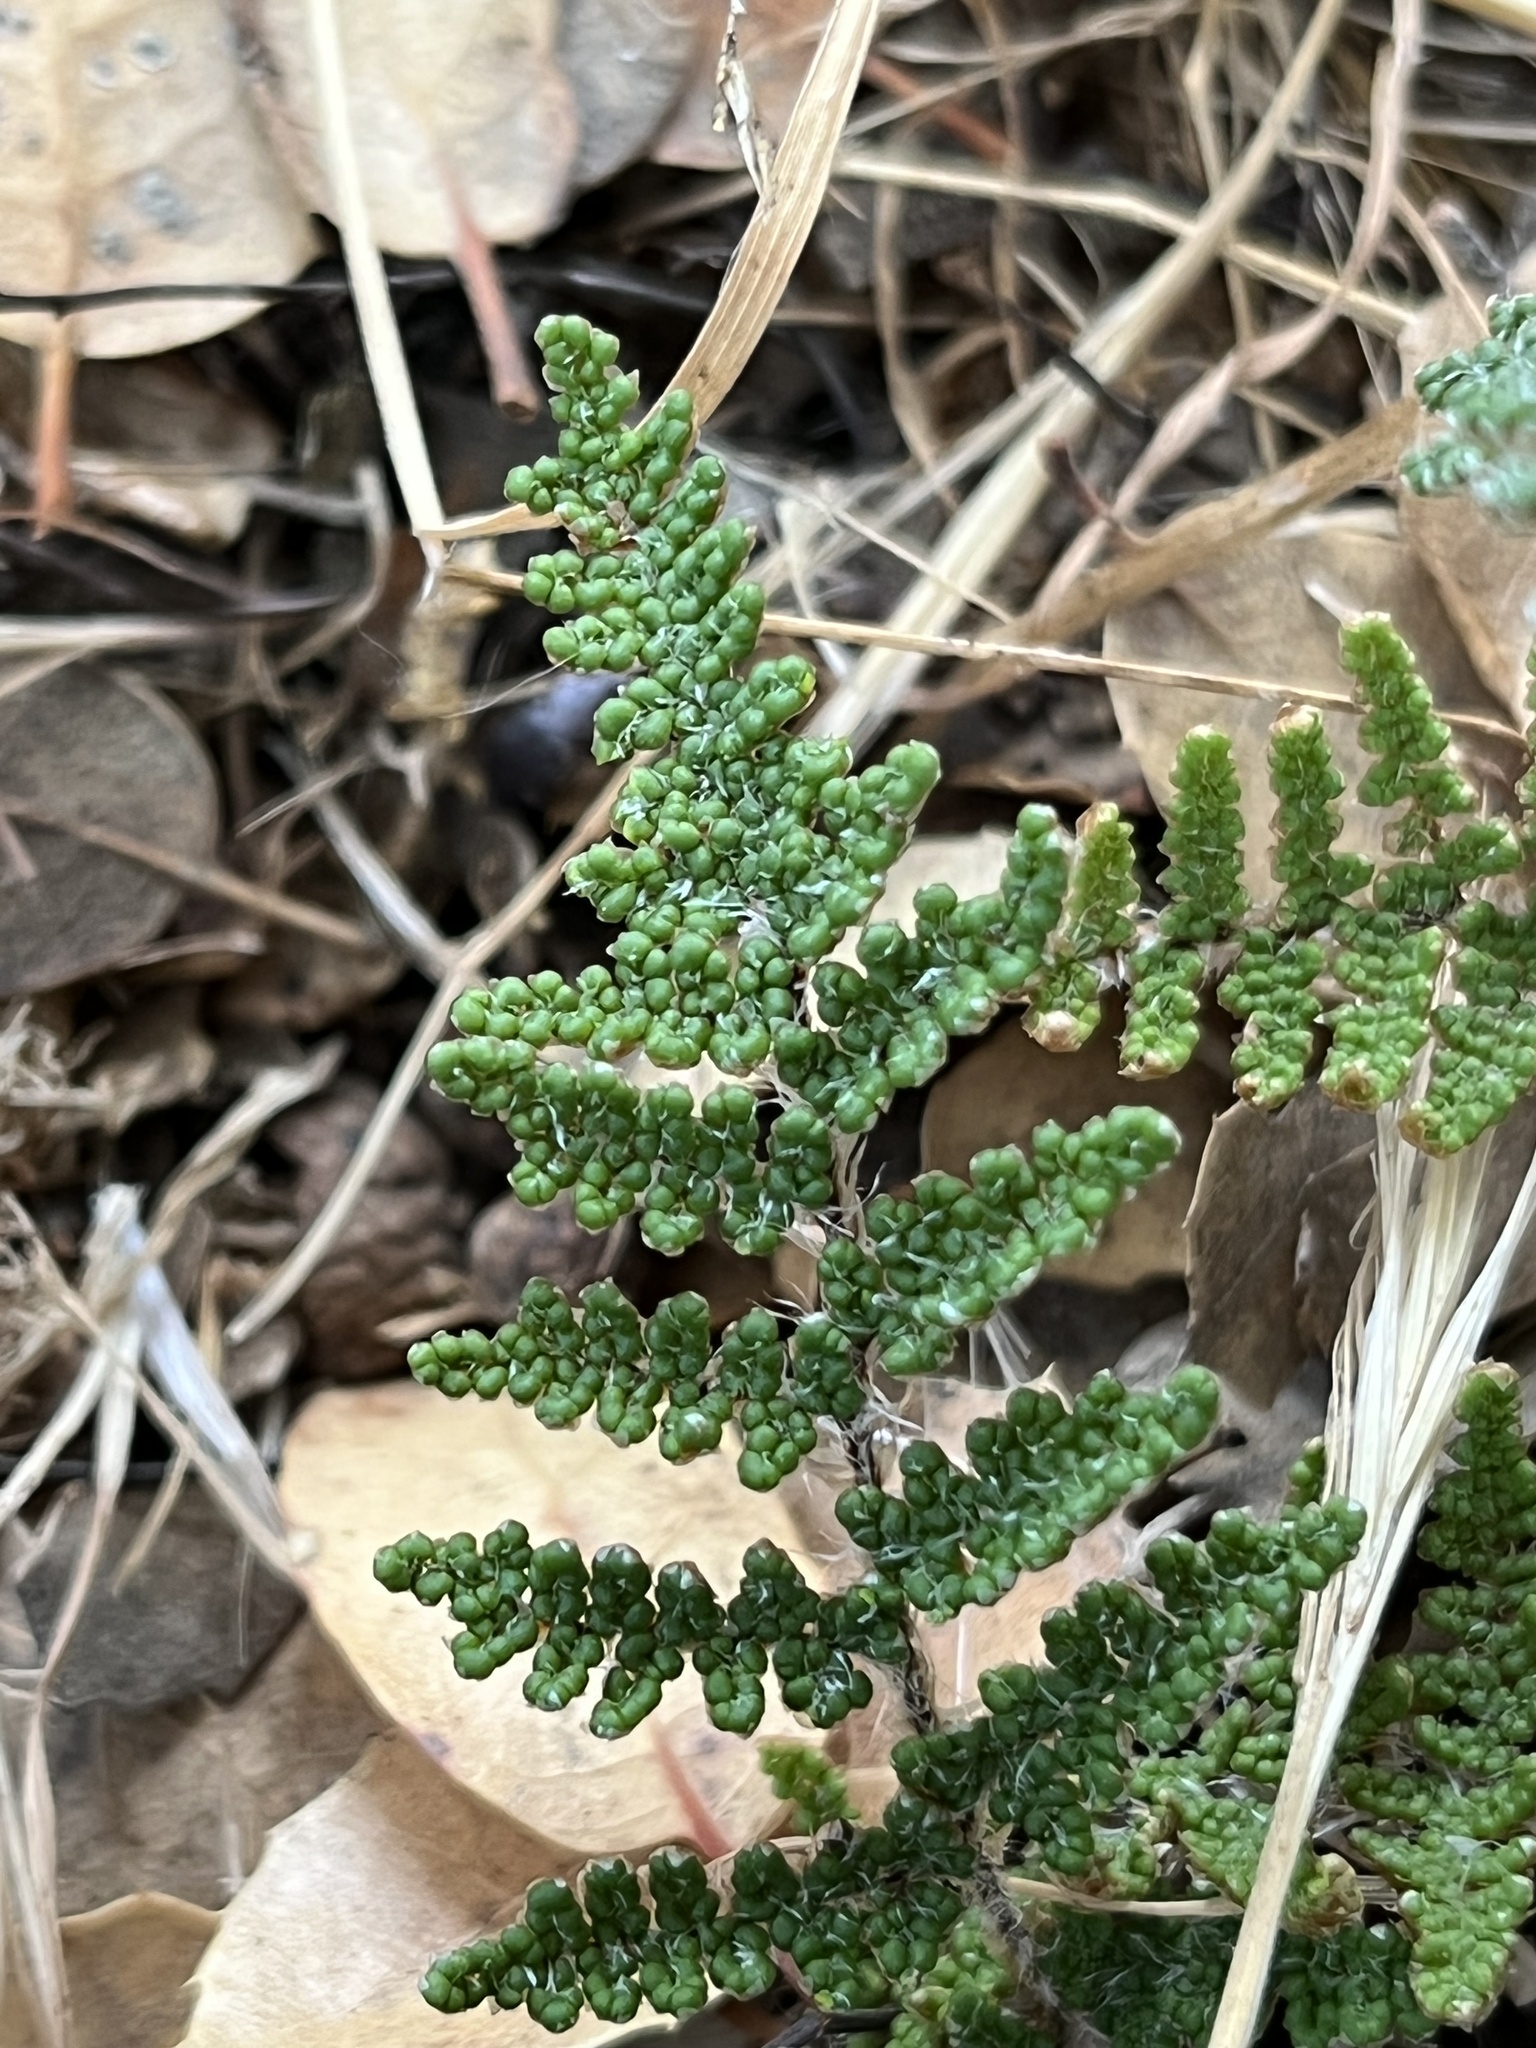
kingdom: Plantae
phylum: Tracheophyta
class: Polypodiopsida
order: Polypodiales
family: Pteridaceae
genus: Myriopteris
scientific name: Myriopteris covillei
